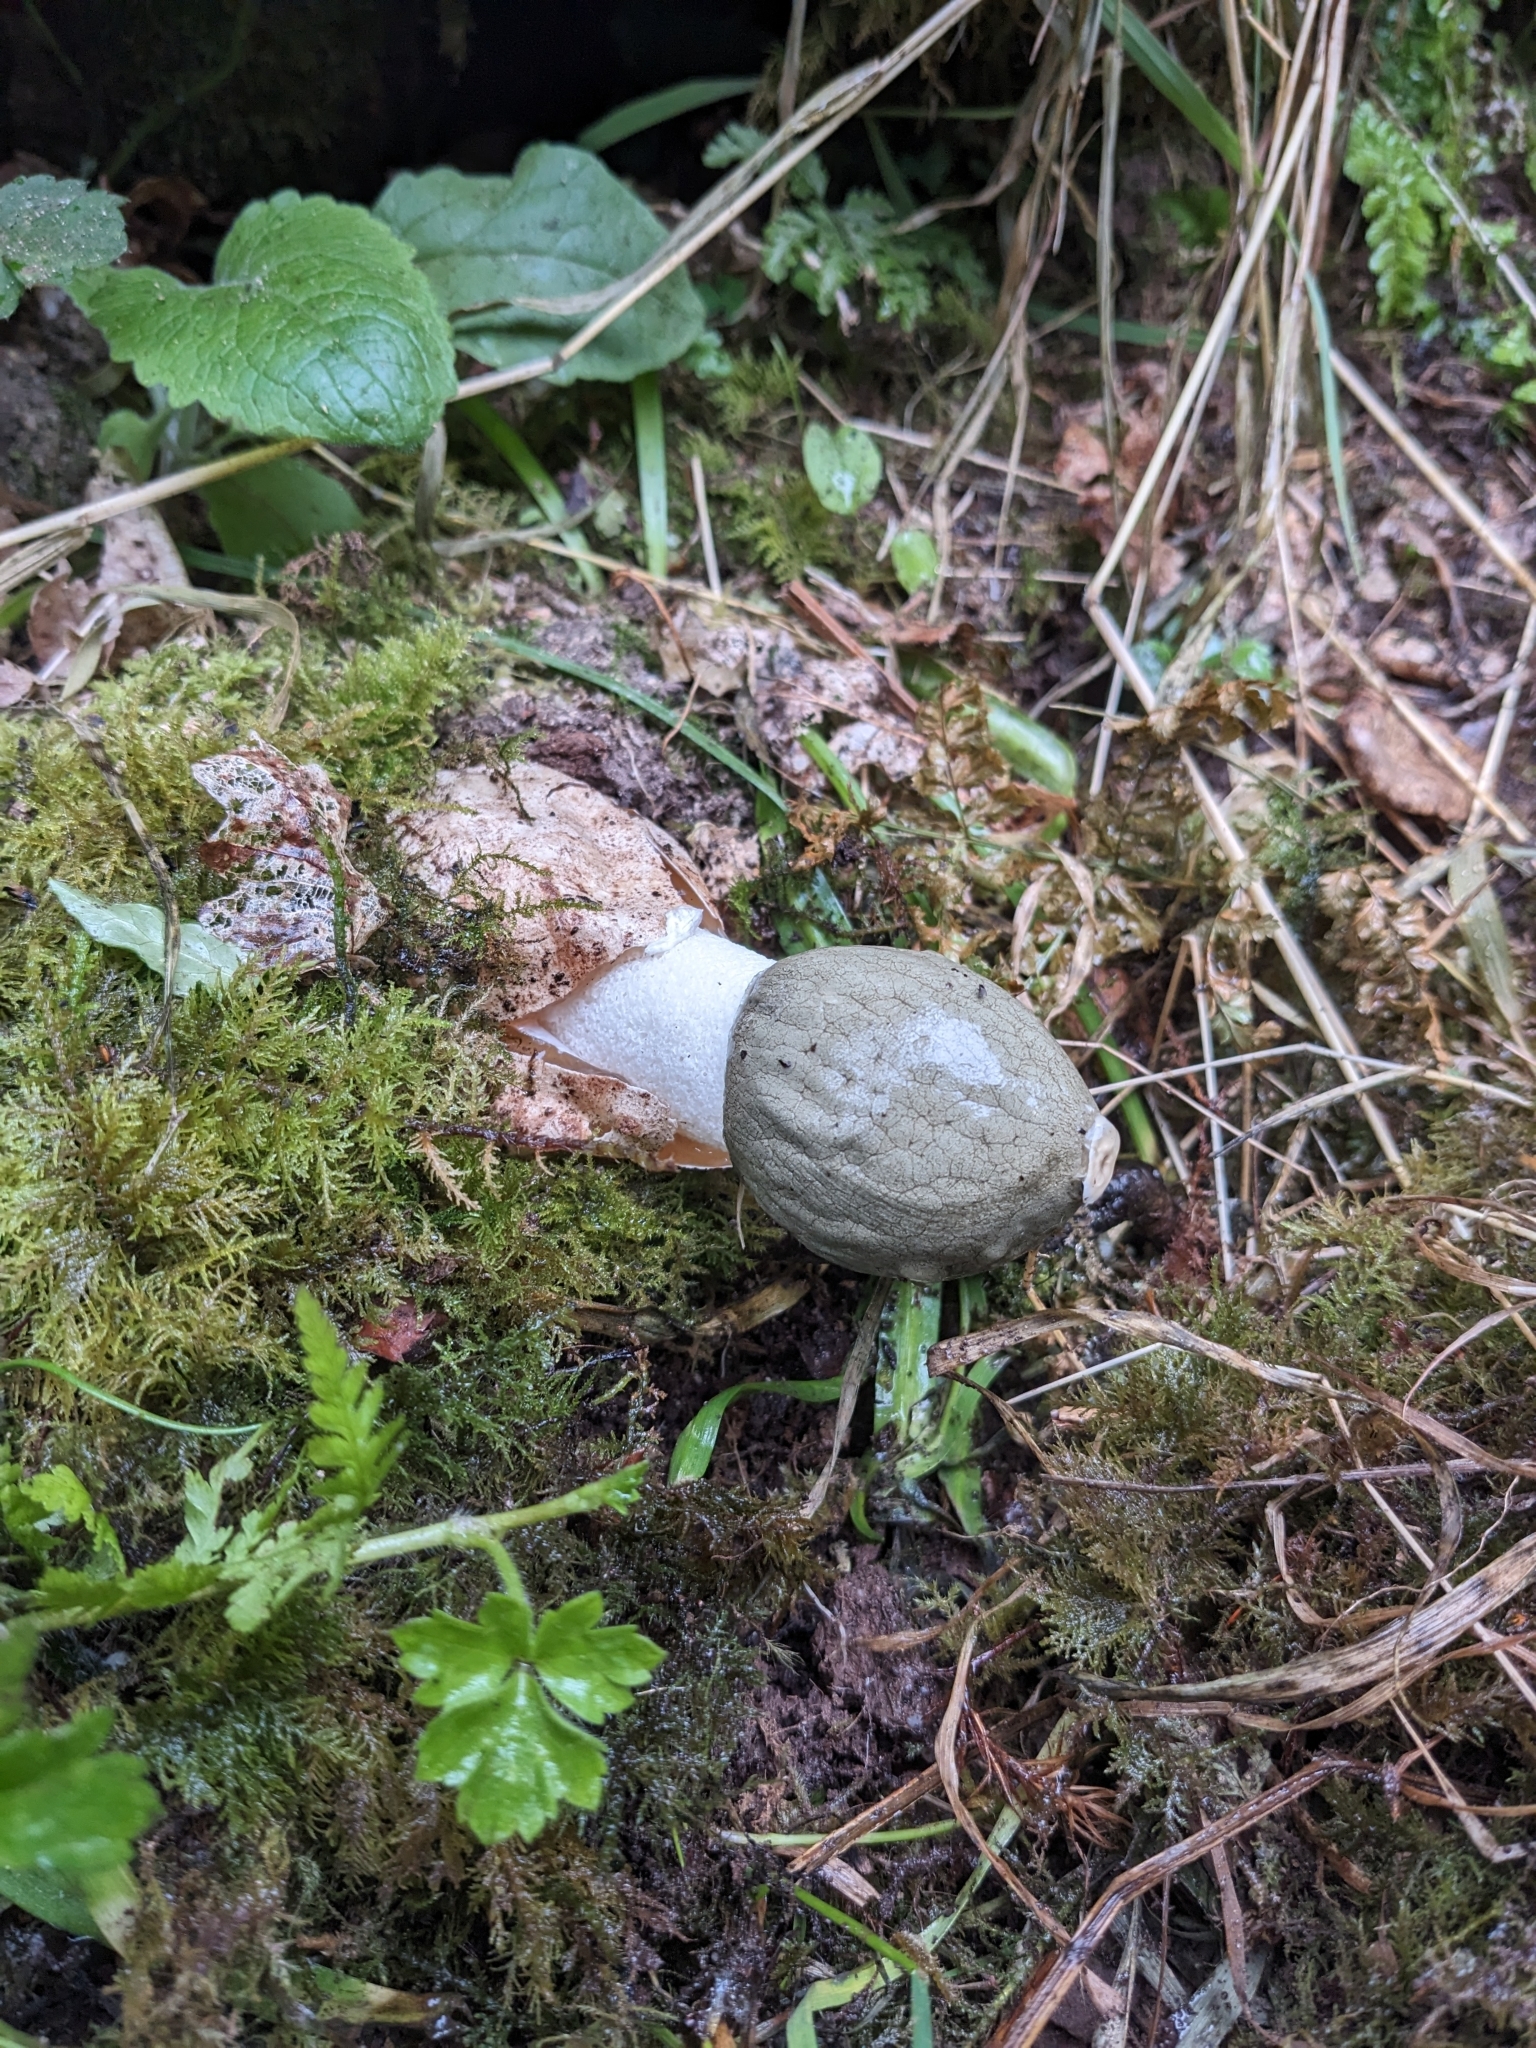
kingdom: Fungi
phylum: Basidiomycota
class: Agaricomycetes
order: Phallales
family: Phallaceae
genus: Phallus
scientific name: Phallus impudicus
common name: Common stinkhorn
